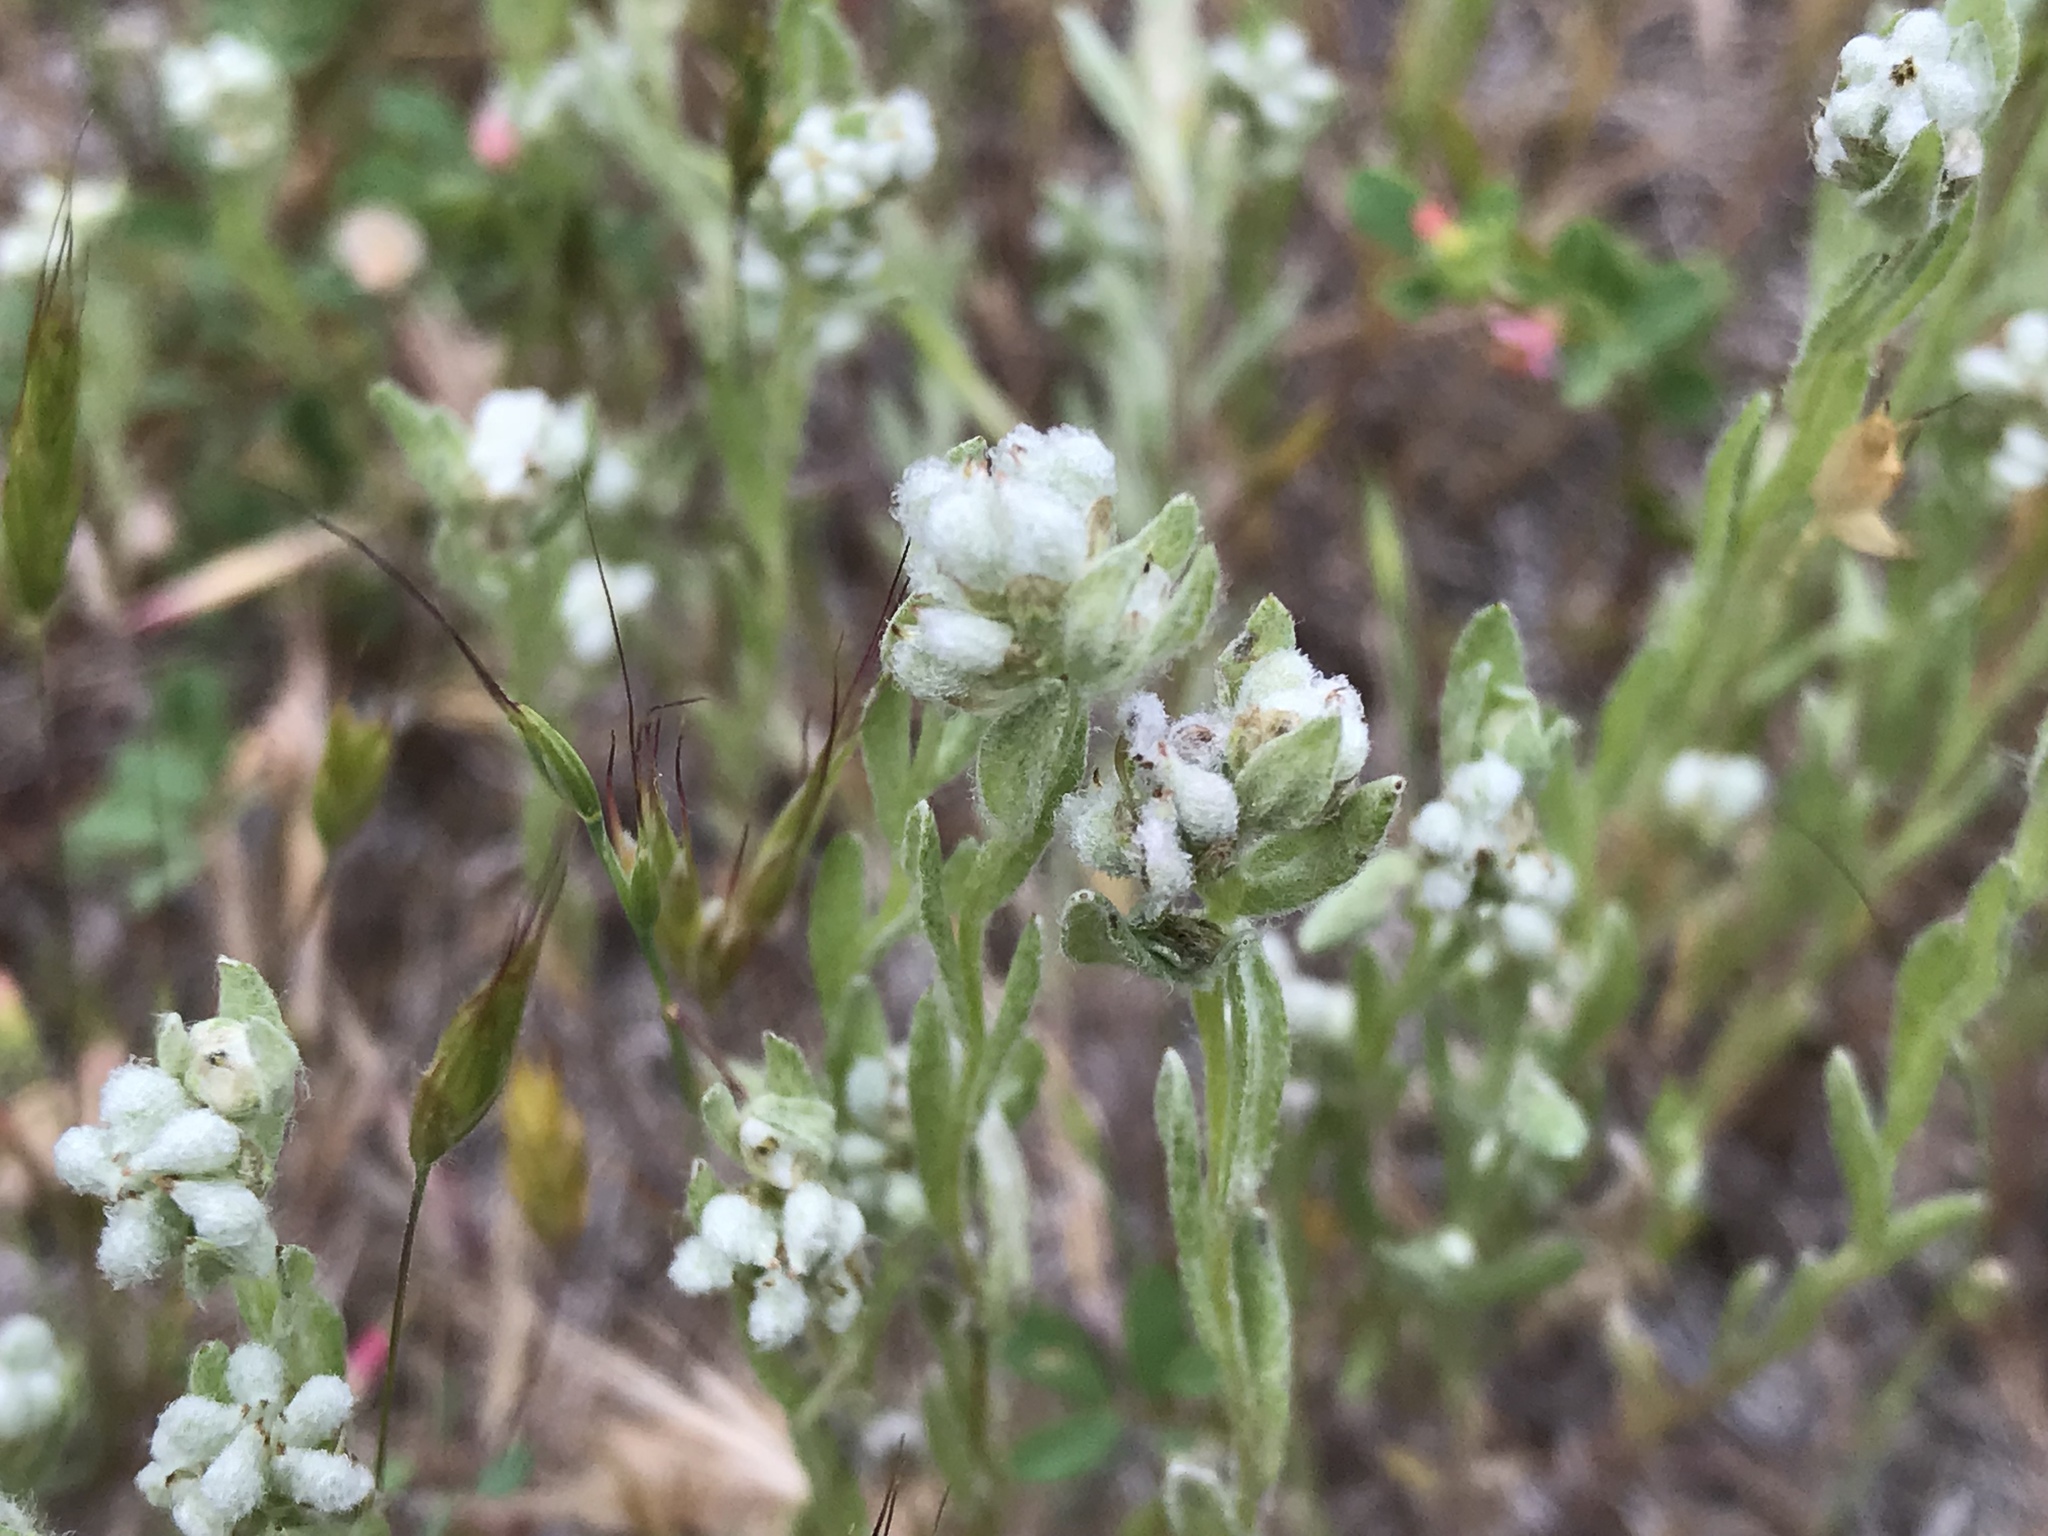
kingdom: Plantae
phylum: Tracheophyta
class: Magnoliopsida
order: Asterales
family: Asteraceae
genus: Bombycilaena
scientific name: Bombycilaena californica
